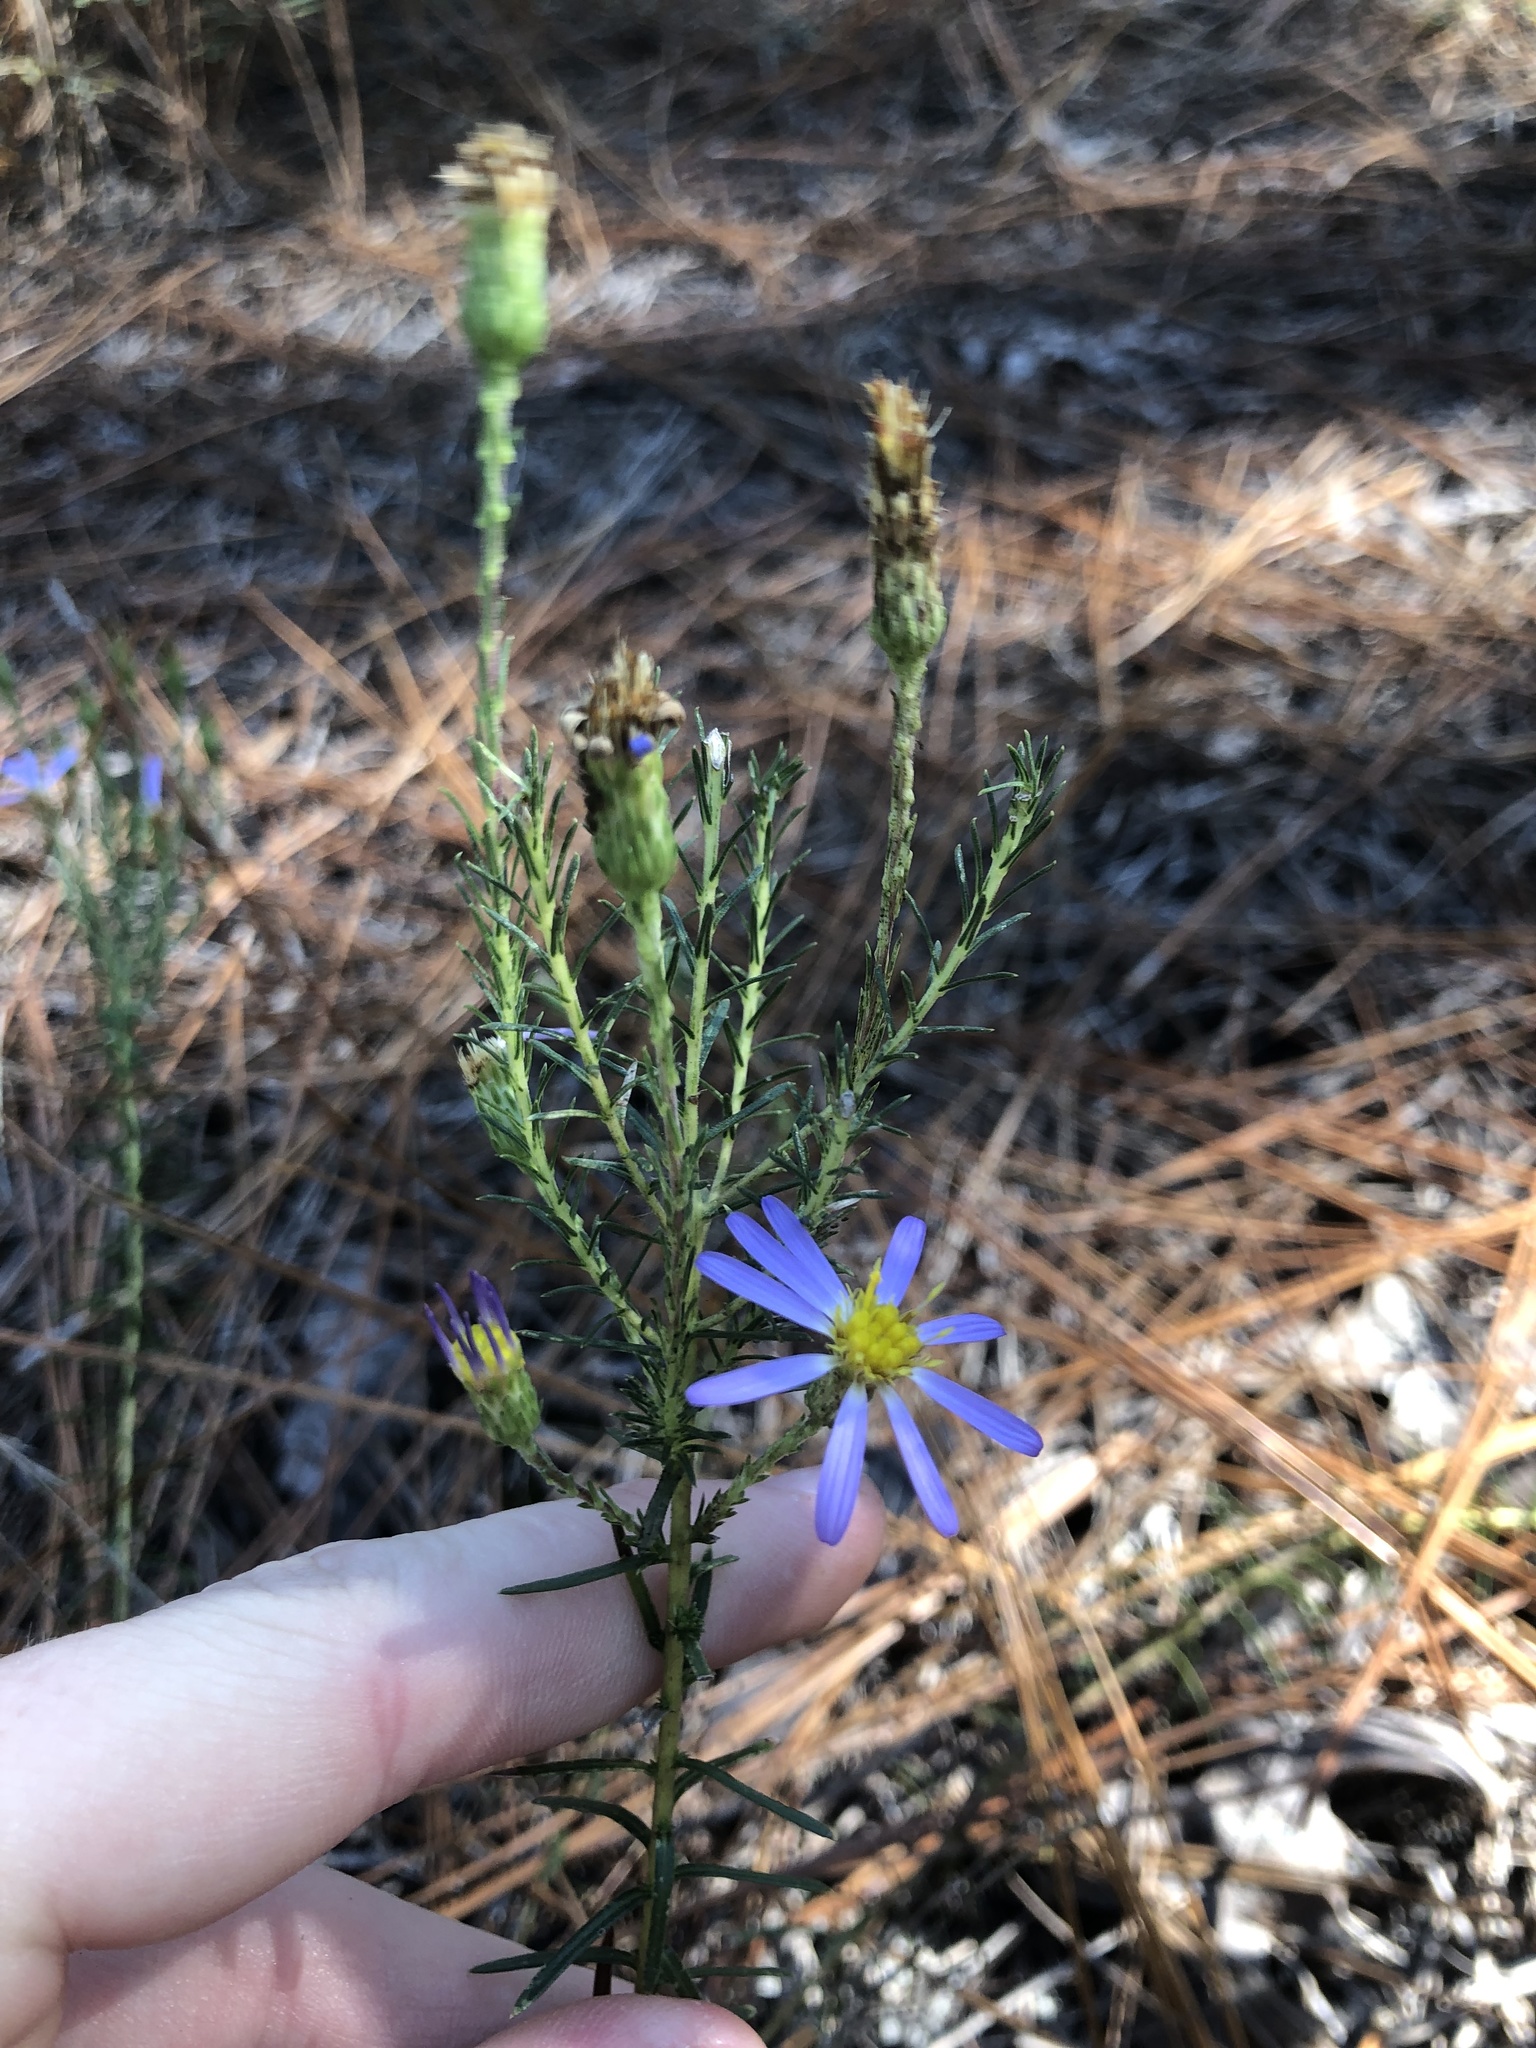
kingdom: Plantae
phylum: Tracheophyta
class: Magnoliopsida
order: Asterales
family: Asteraceae
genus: Ionactis
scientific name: Ionactis linariifolia
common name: Flax-leaf aster
